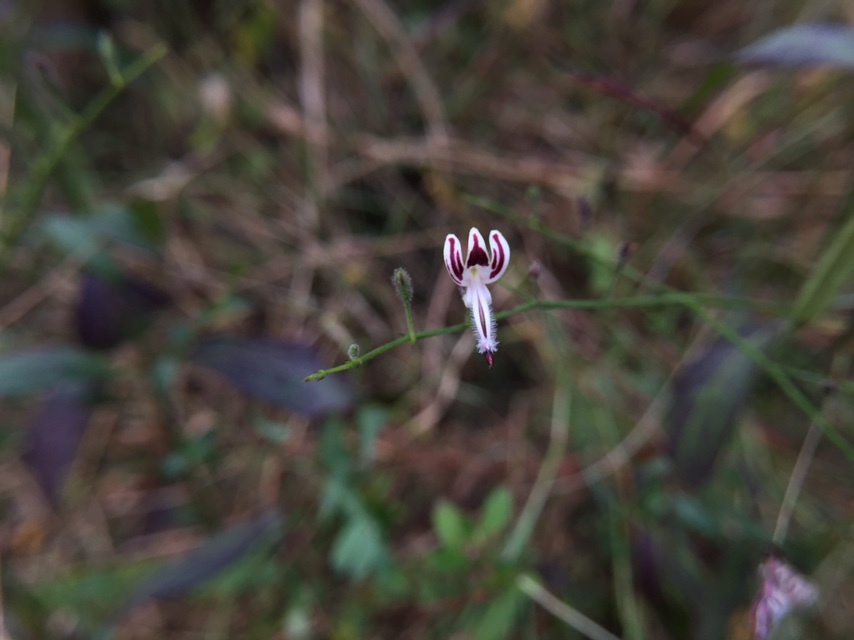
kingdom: Plantae
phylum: Tracheophyta
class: Magnoliopsida
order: Lamiales
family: Acanthaceae
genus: Andrographis
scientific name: Andrographis paniculata
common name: Green chireta
